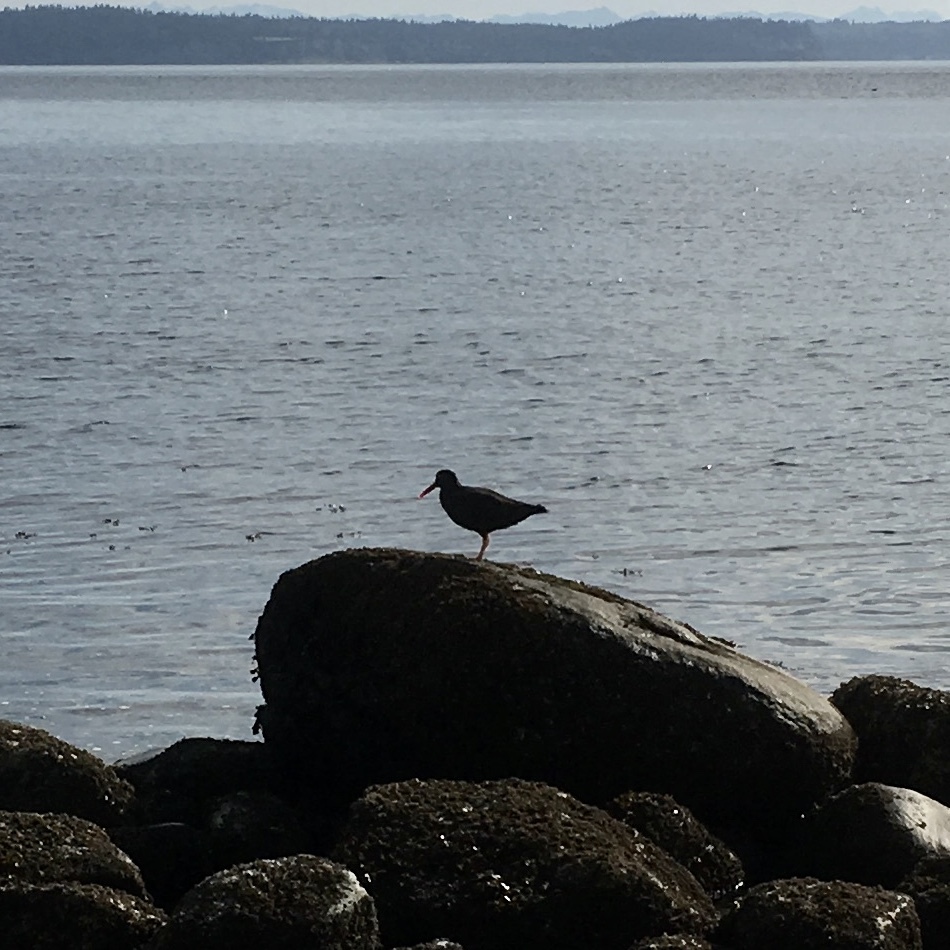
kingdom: Animalia
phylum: Chordata
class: Aves
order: Charadriiformes
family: Haematopodidae
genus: Haematopus
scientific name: Haematopus bachmani
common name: Black oystercatcher
